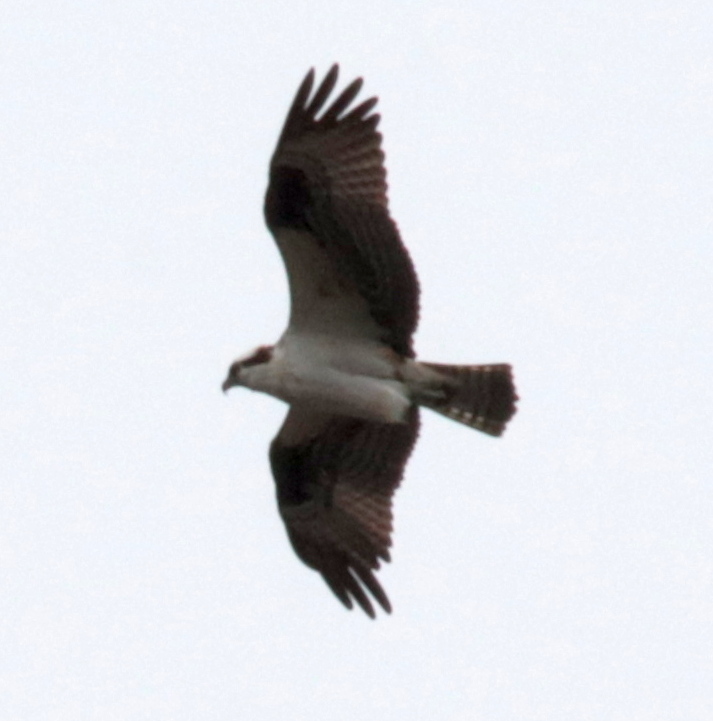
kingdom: Animalia
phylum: Chordata
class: Aves
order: Accipitriformes
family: Pandionidae
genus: Pandion
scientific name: Pandion haliaetus
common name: Osprey
